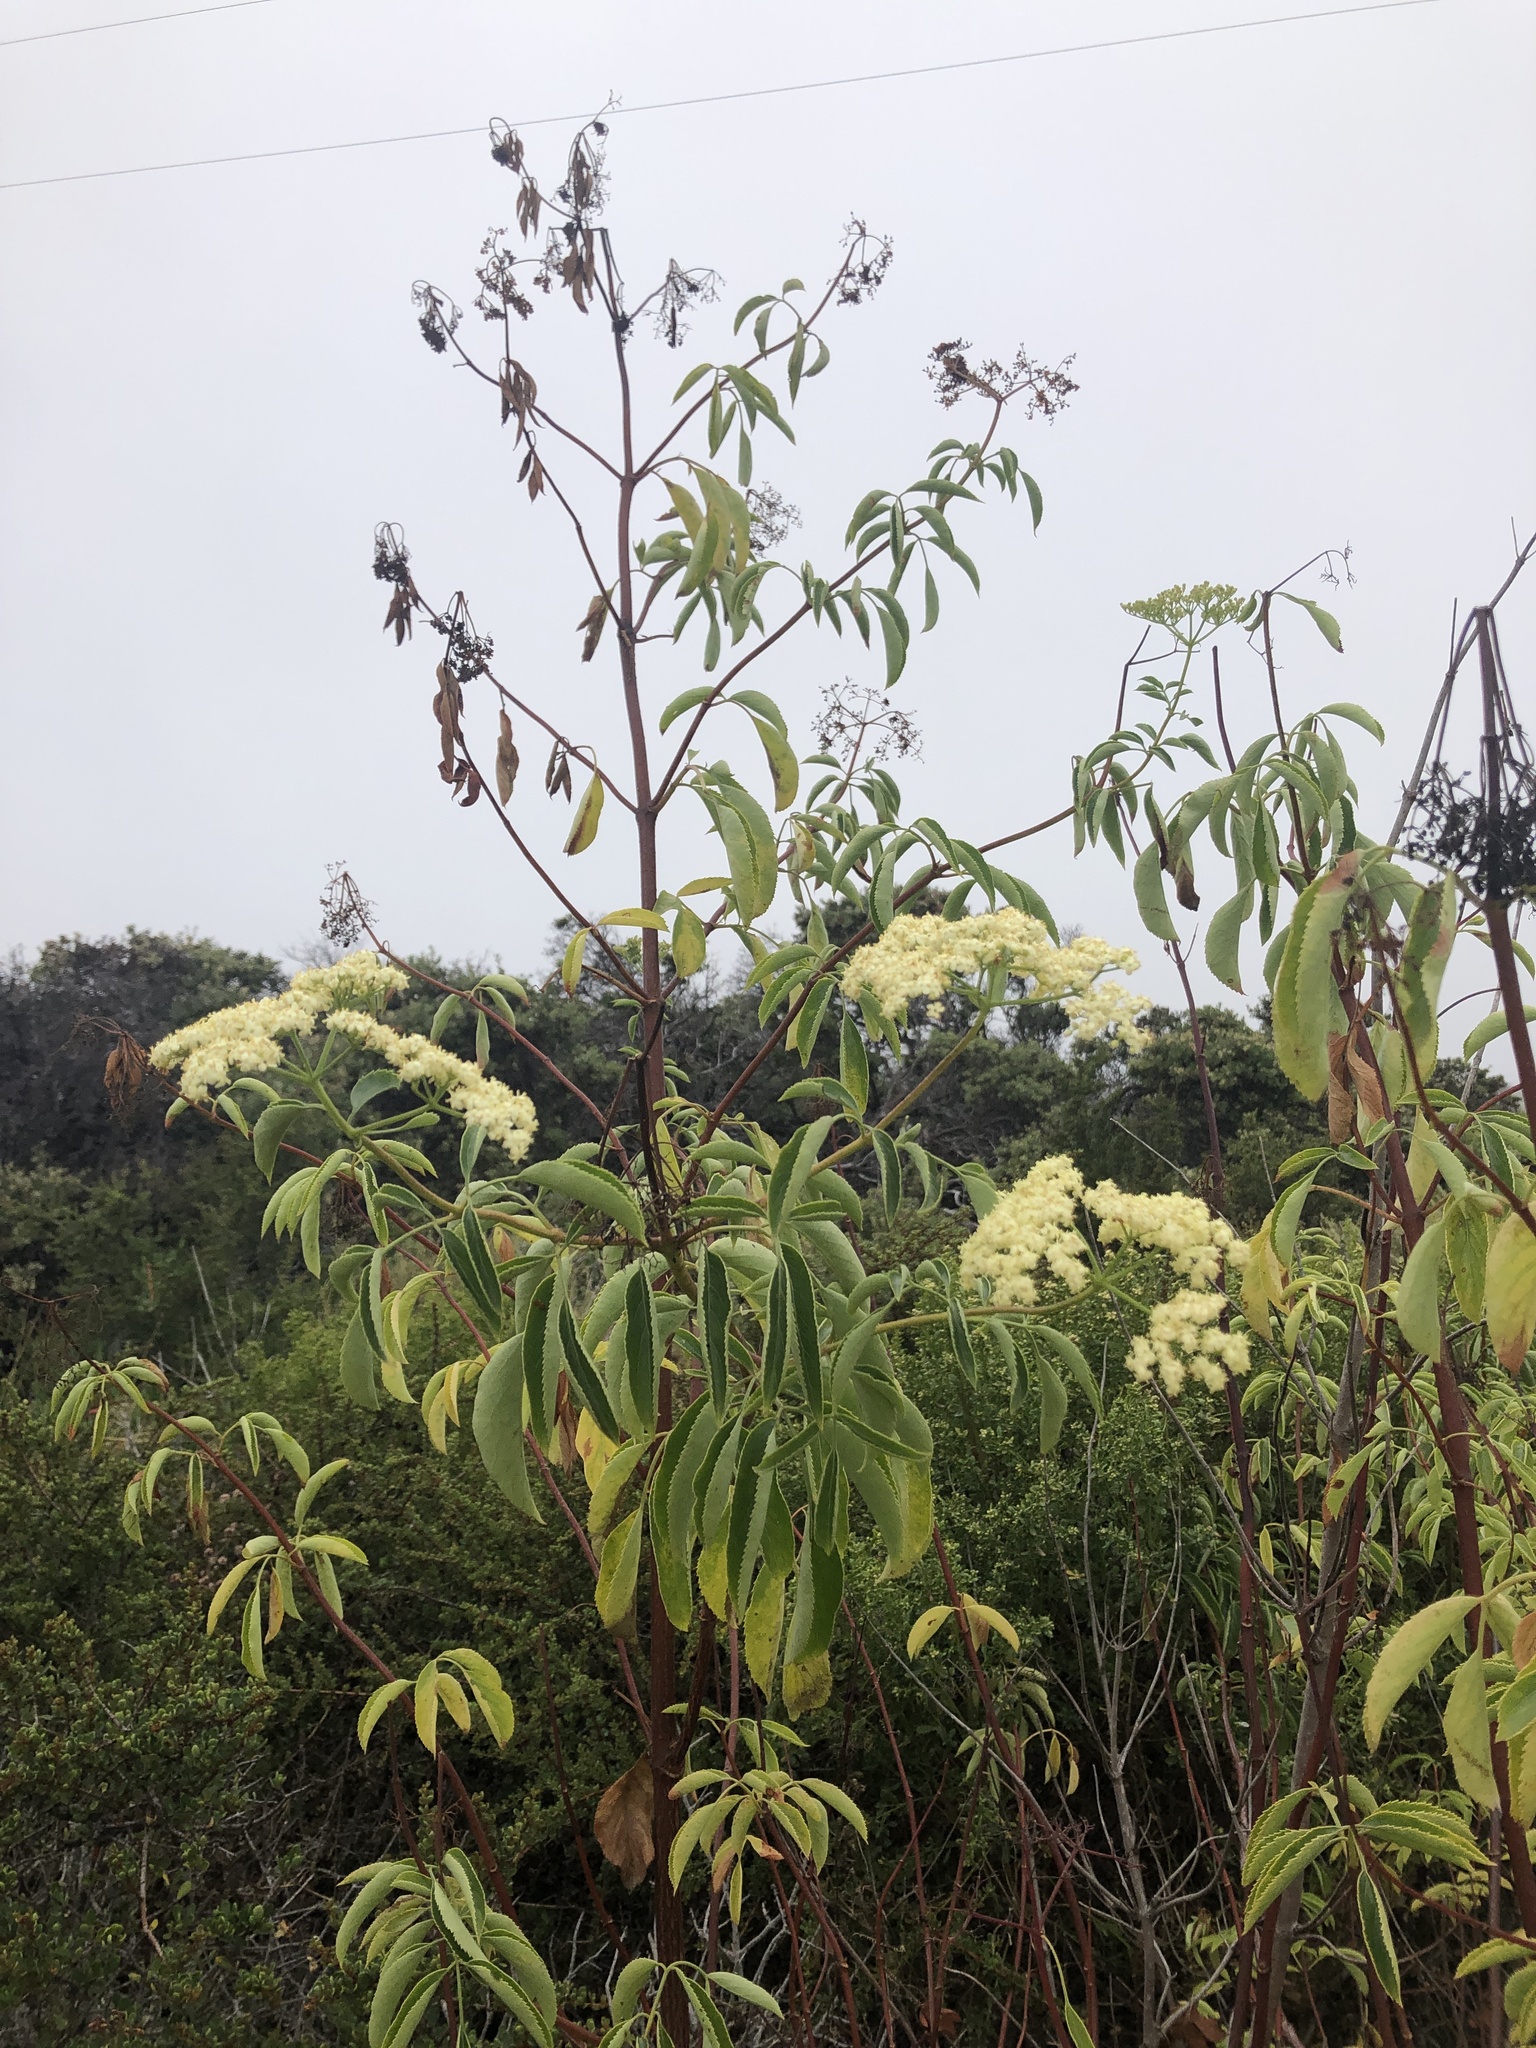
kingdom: Plantae
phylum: Tracheophyta
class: Magnoliopsida
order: Dipsacales
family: Viburnaceae
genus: Sambucus
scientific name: Sambucus cerulea
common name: Blue elder
